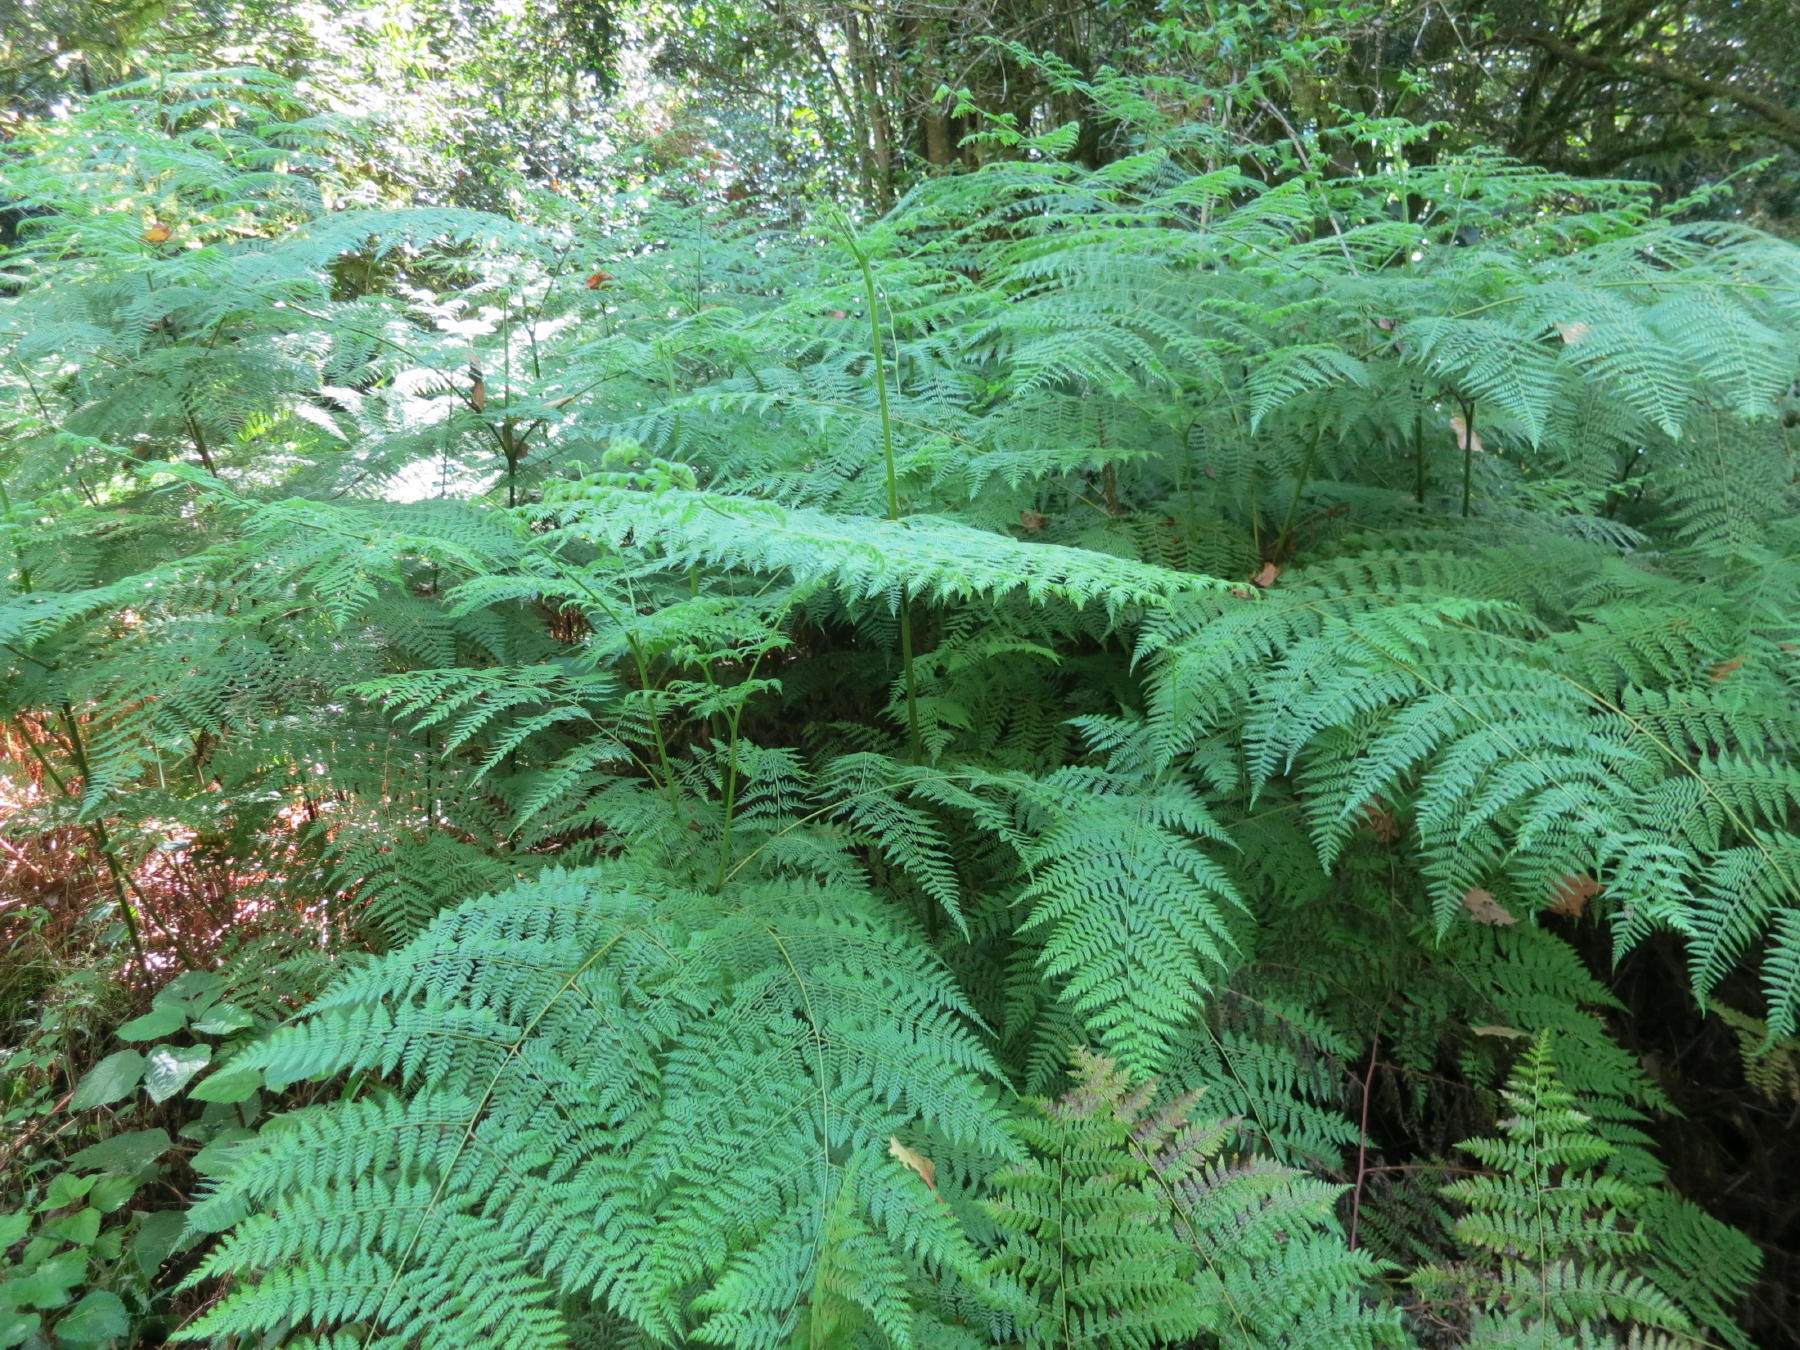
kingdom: Plantae
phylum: Tracheophyta
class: Polypodiopsida
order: Polypodiales
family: Dennstaedtiaceae
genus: Hypolepis
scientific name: Hypolepis sparsisora
